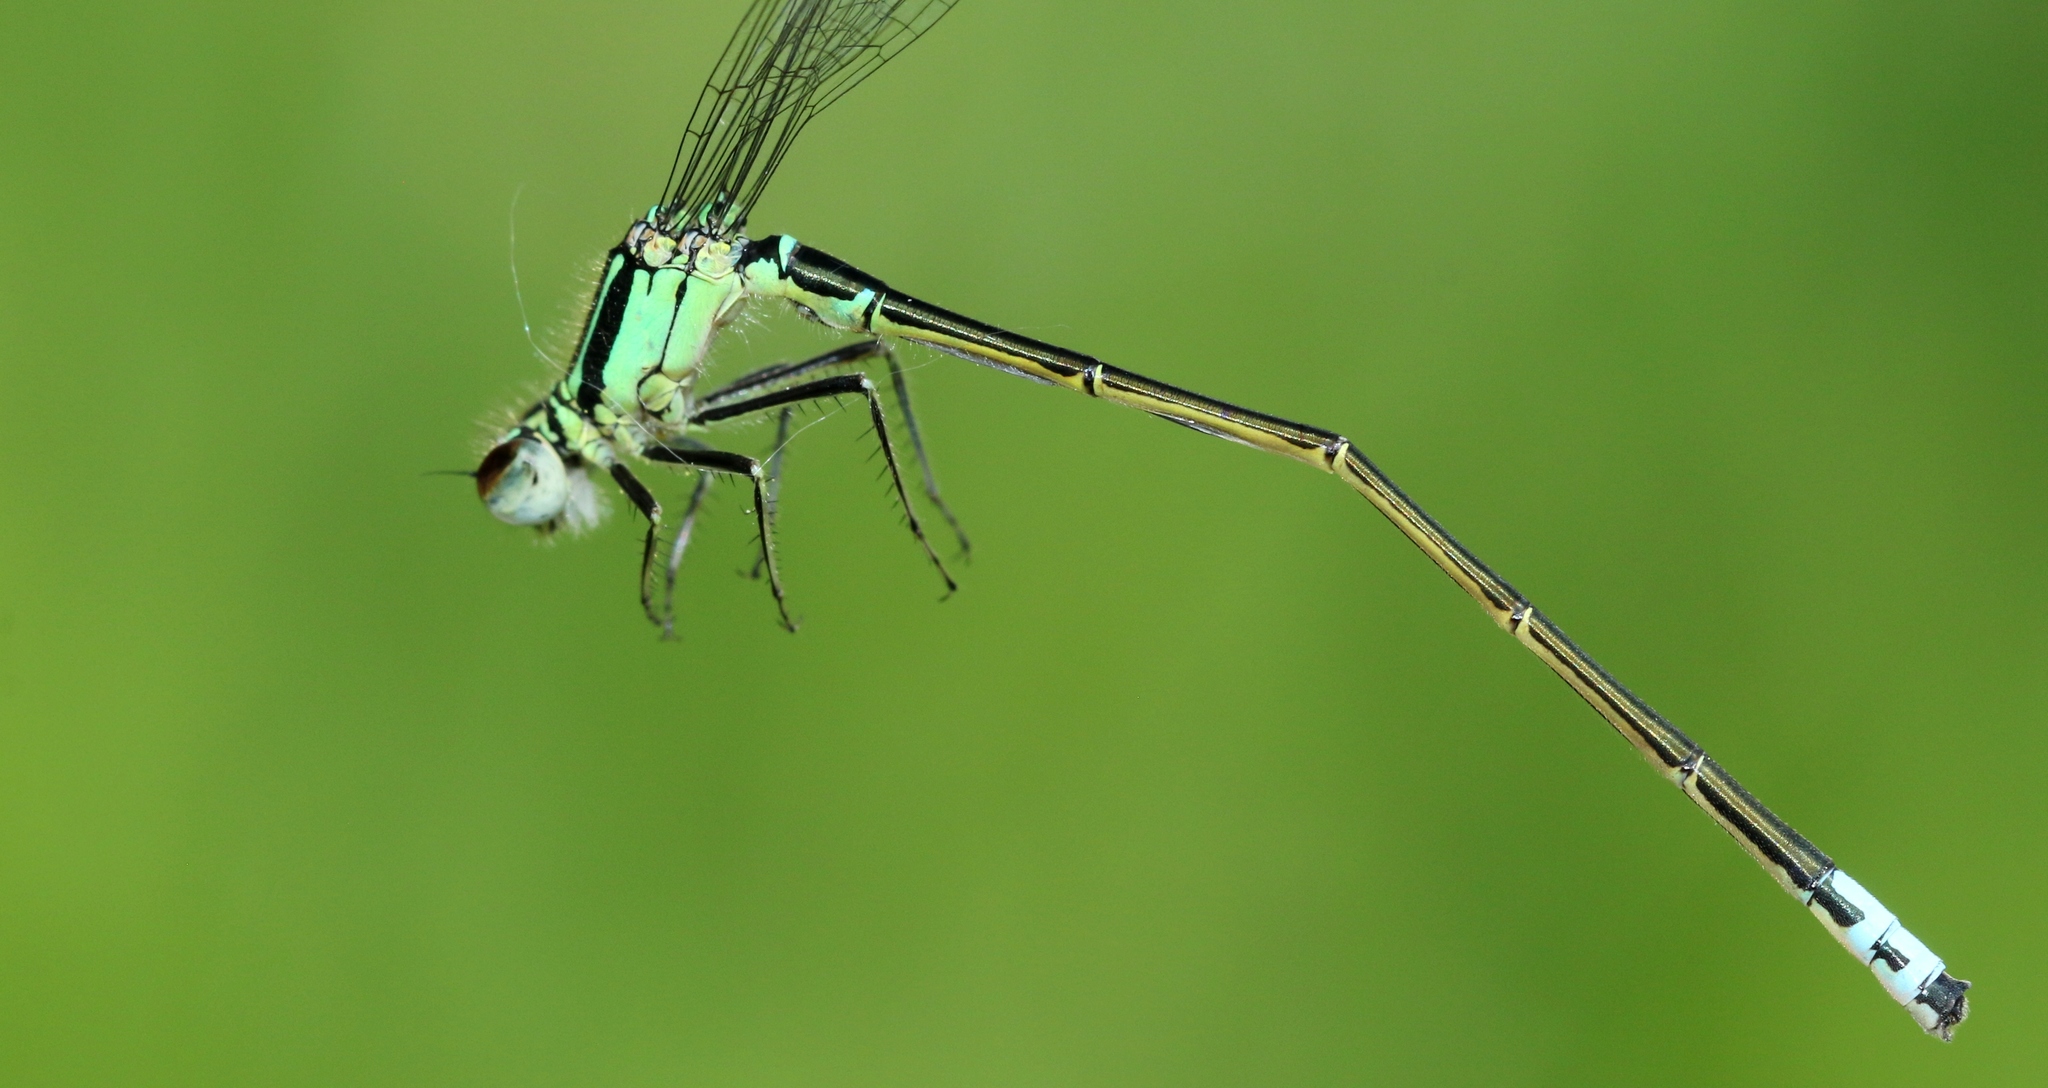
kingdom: Animalia
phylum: Arthropoda
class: Insecta
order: Odonata
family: Coenagrionidae
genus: Ischnura
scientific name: Ischnura verticalis
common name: Eastern forktail
